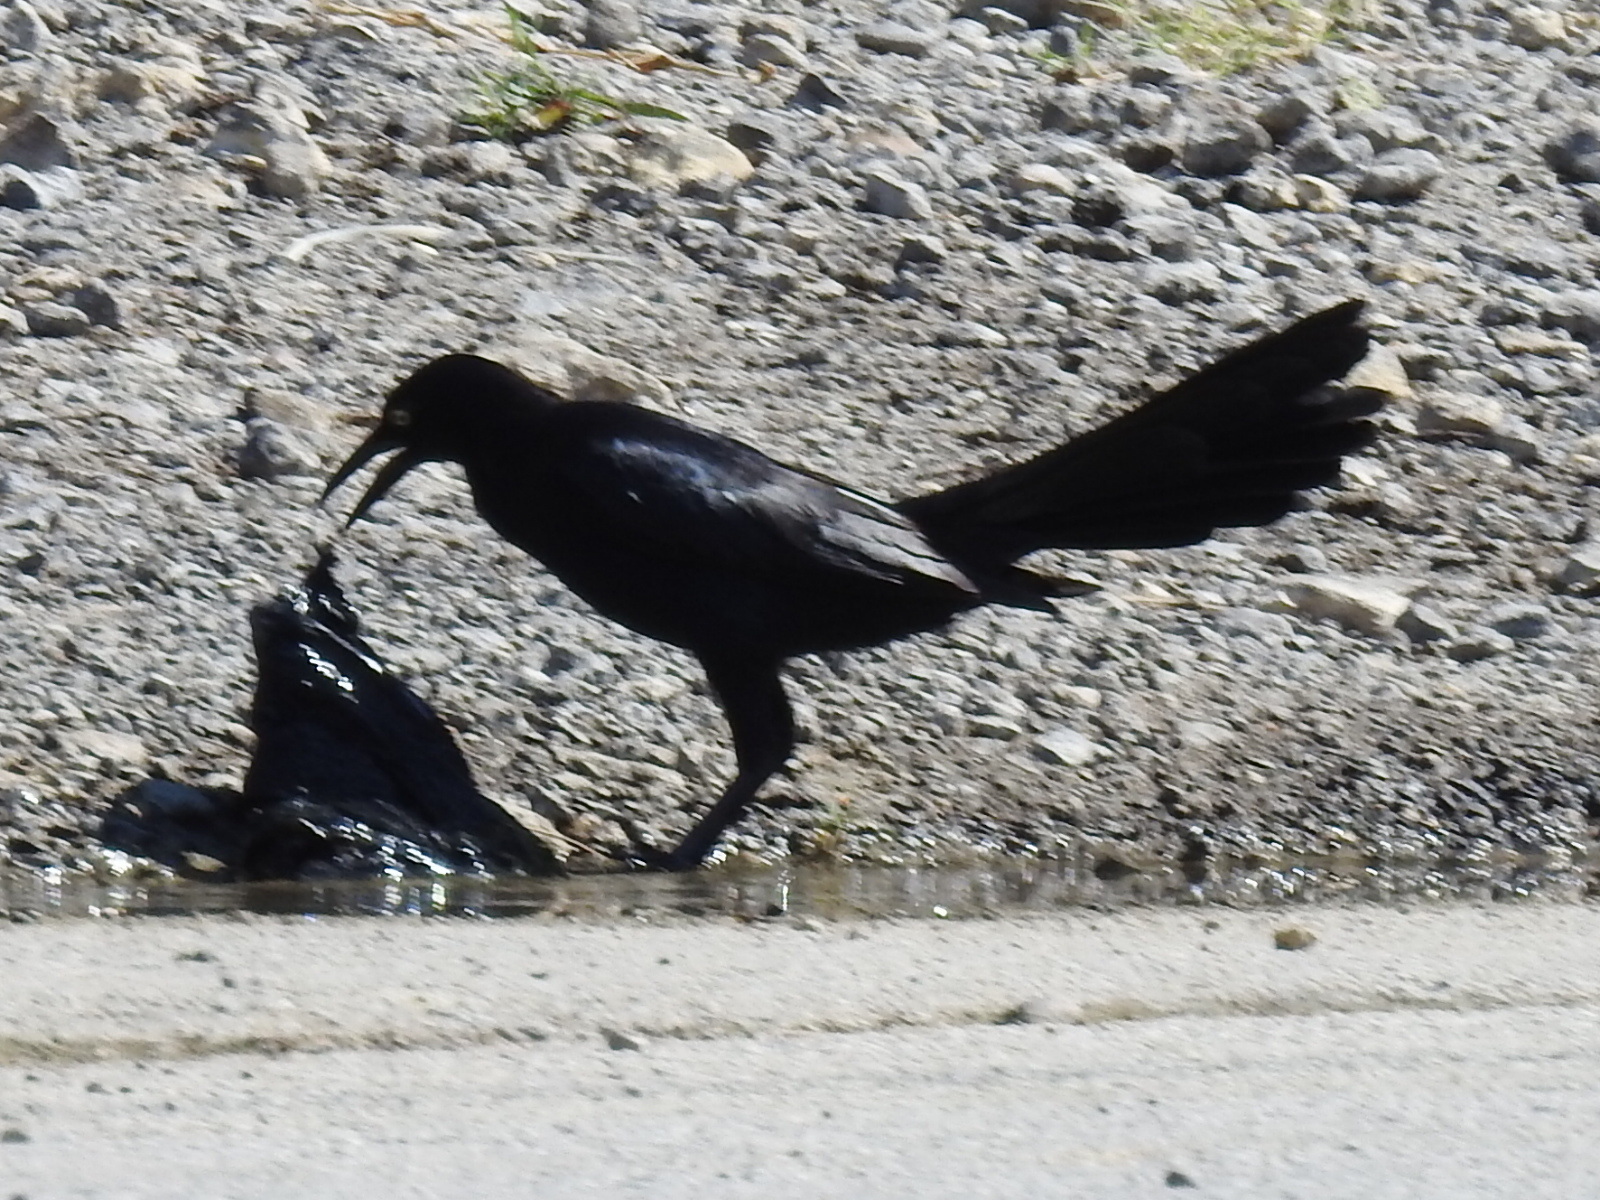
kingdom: Animalia
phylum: Chordata
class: Aves
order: Passeriformes
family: Icteridae
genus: Quiscalus
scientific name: Quiscalus mexicanus
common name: Great-tailed grackle
